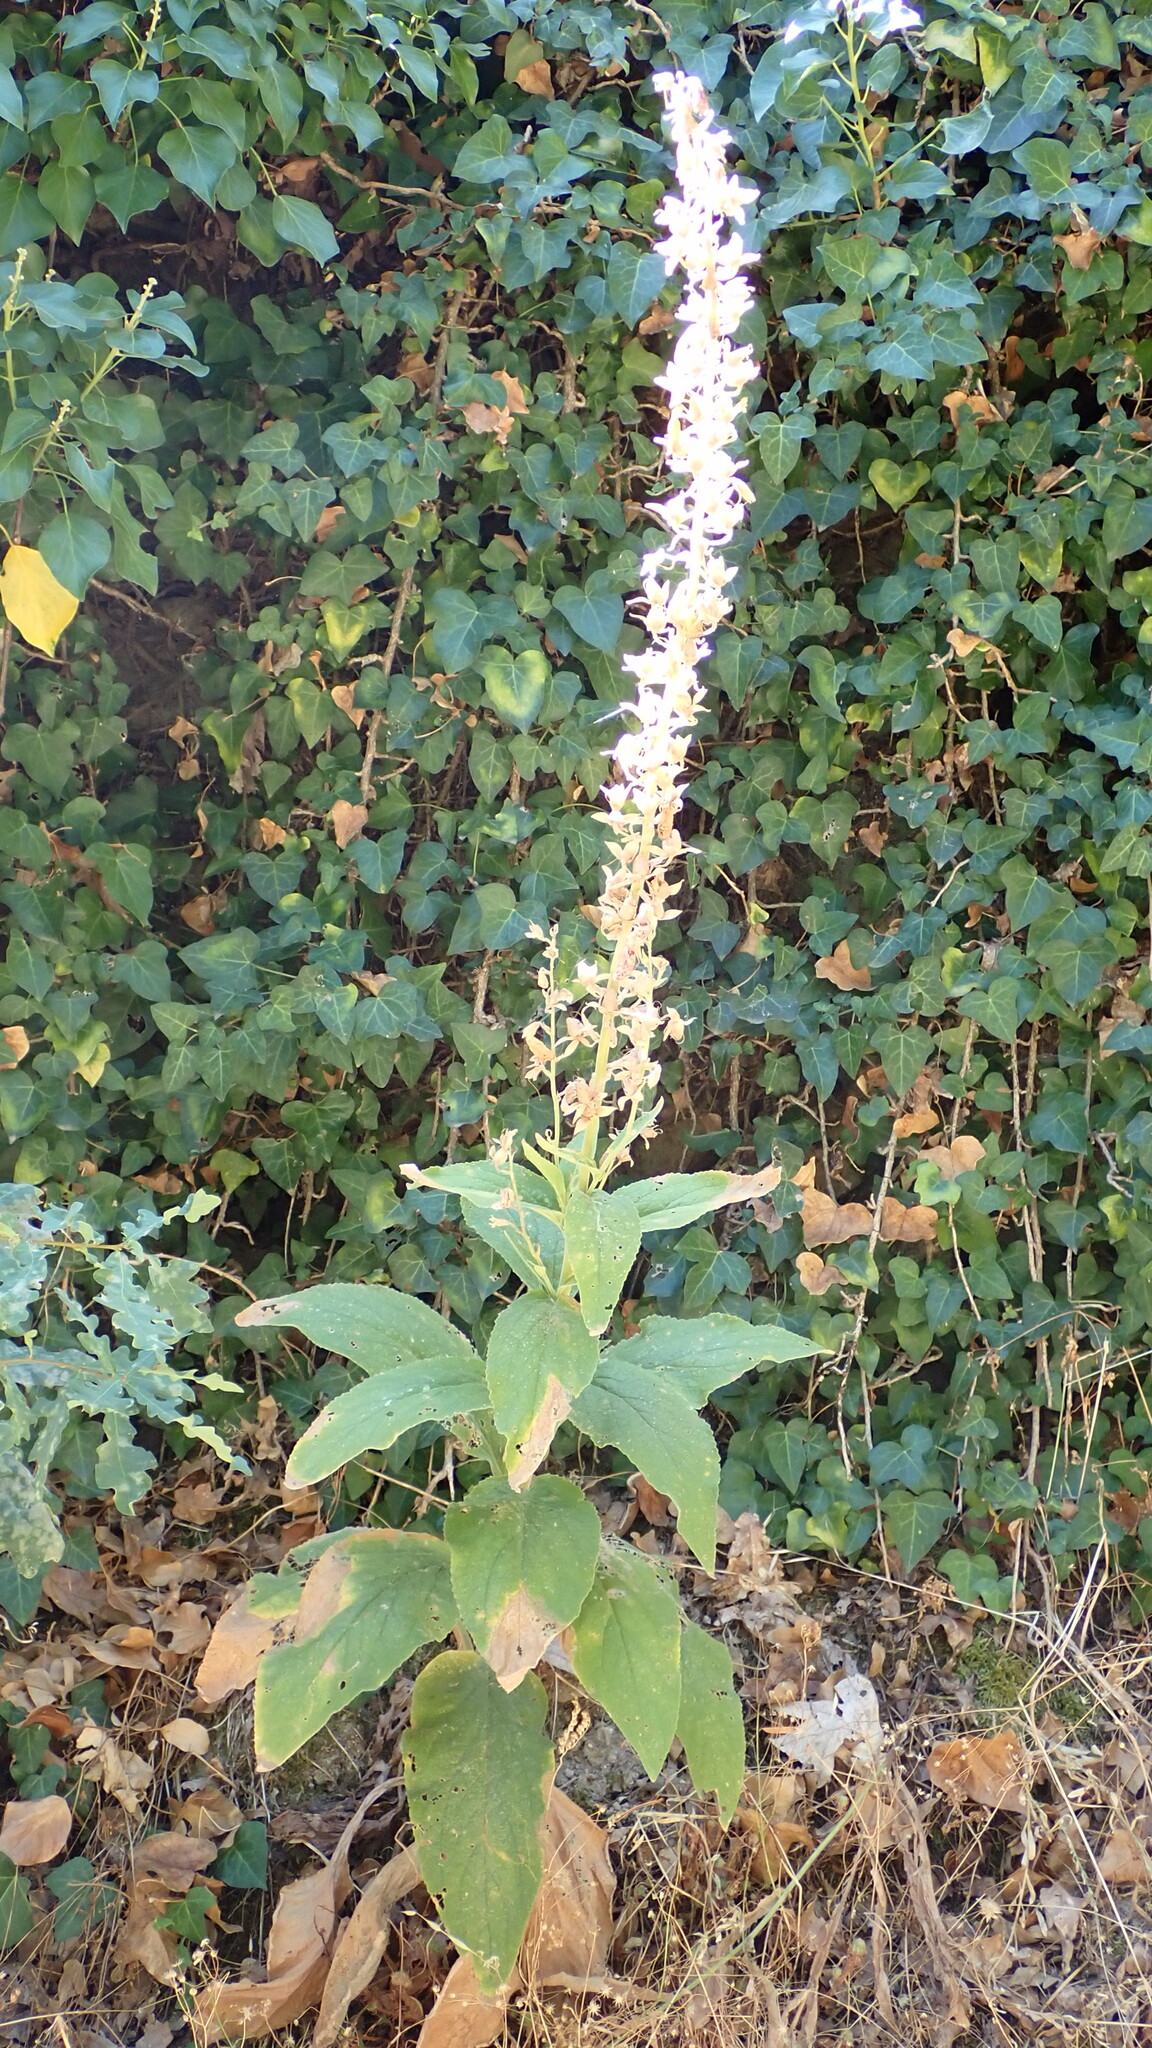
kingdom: Plantae
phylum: Tracheophyta
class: Magnoliopsida
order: Lamiales
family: Plantaginaceae
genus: Digitalis
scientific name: Digitalis purpurea
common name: Foxglove
